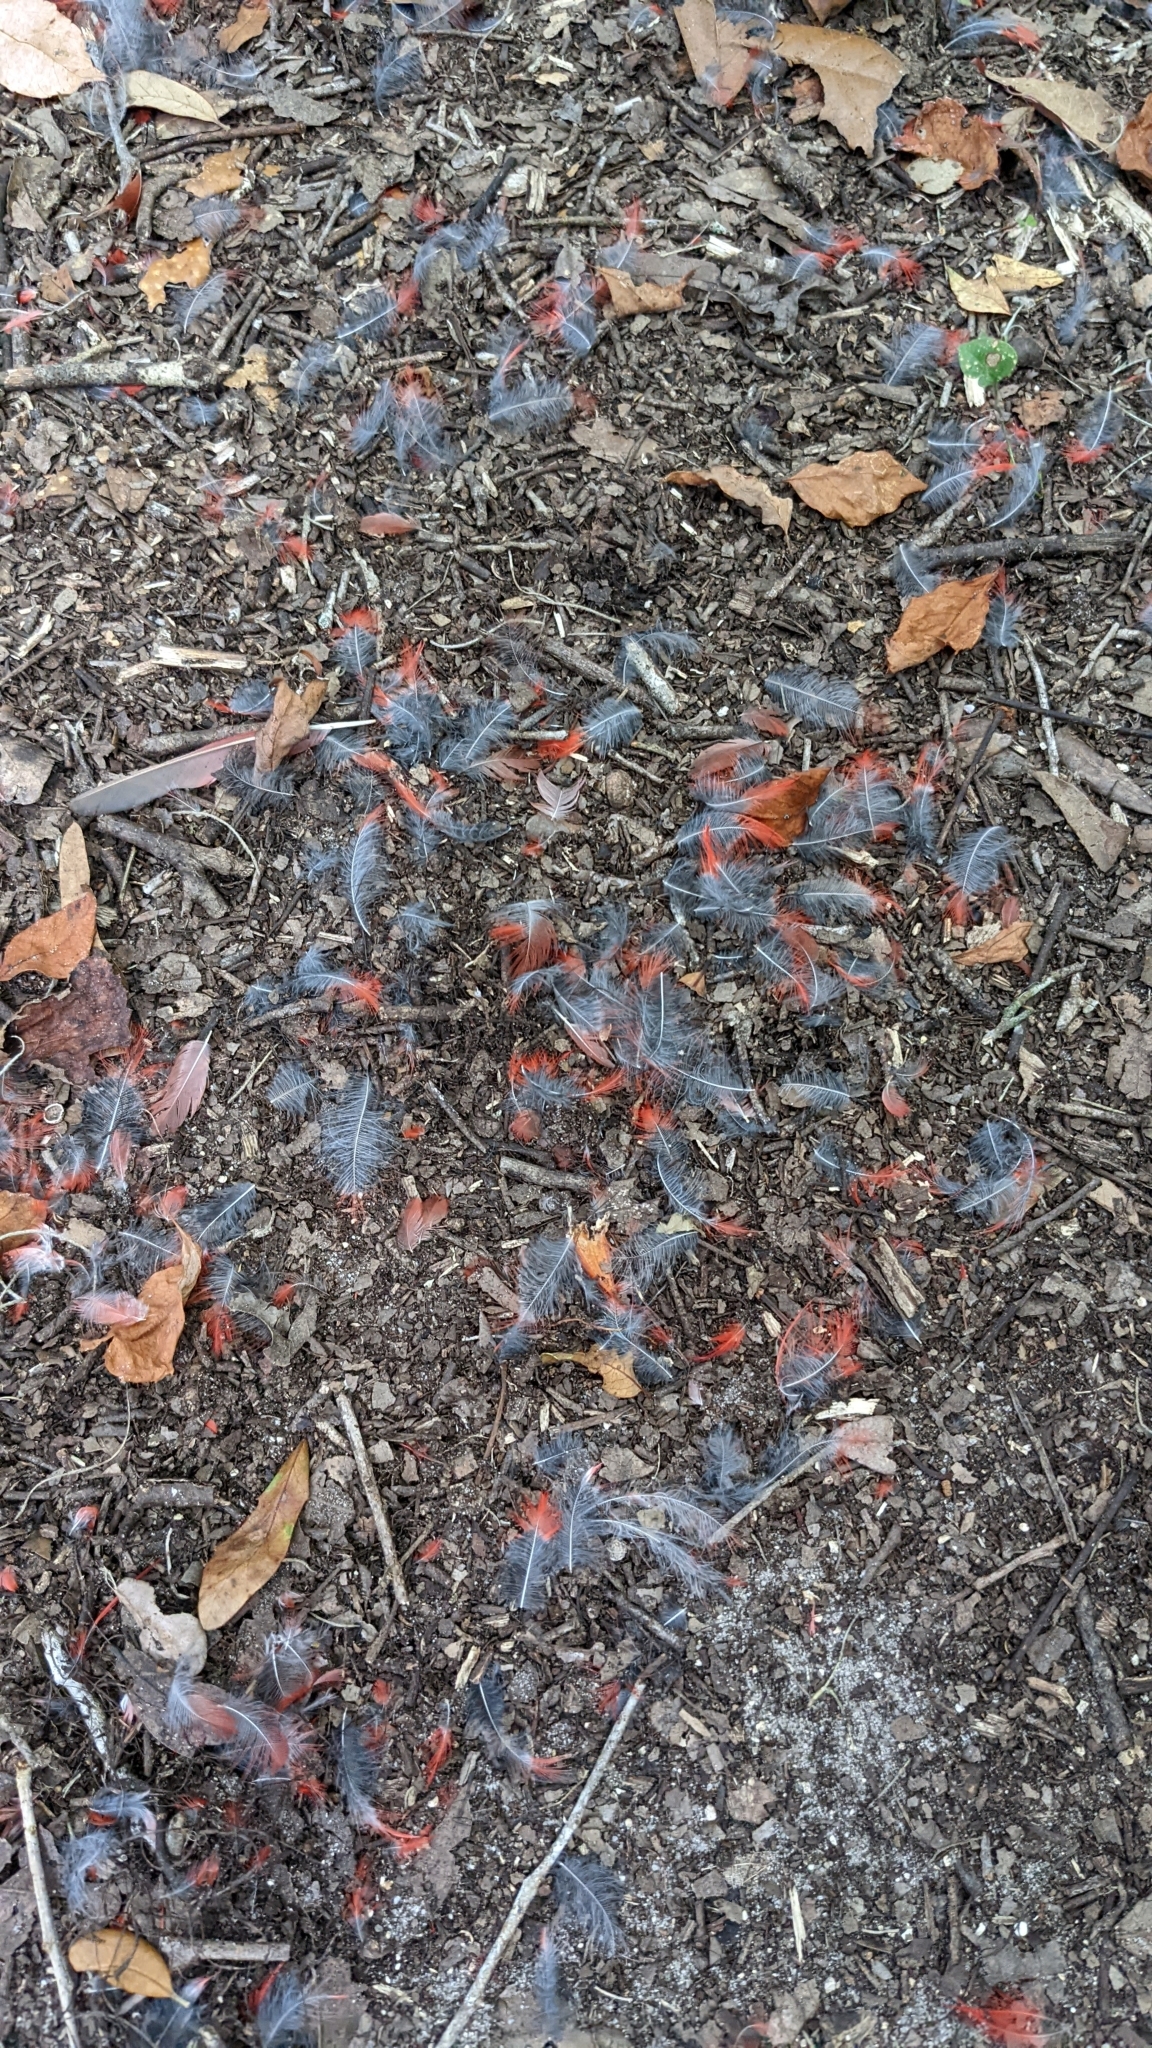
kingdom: Animalia
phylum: Chordata
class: Aves
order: Passeriformes
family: Cardinalidae
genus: Cardinalis
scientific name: Cardinalis cardinalis
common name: Northern cardinal
